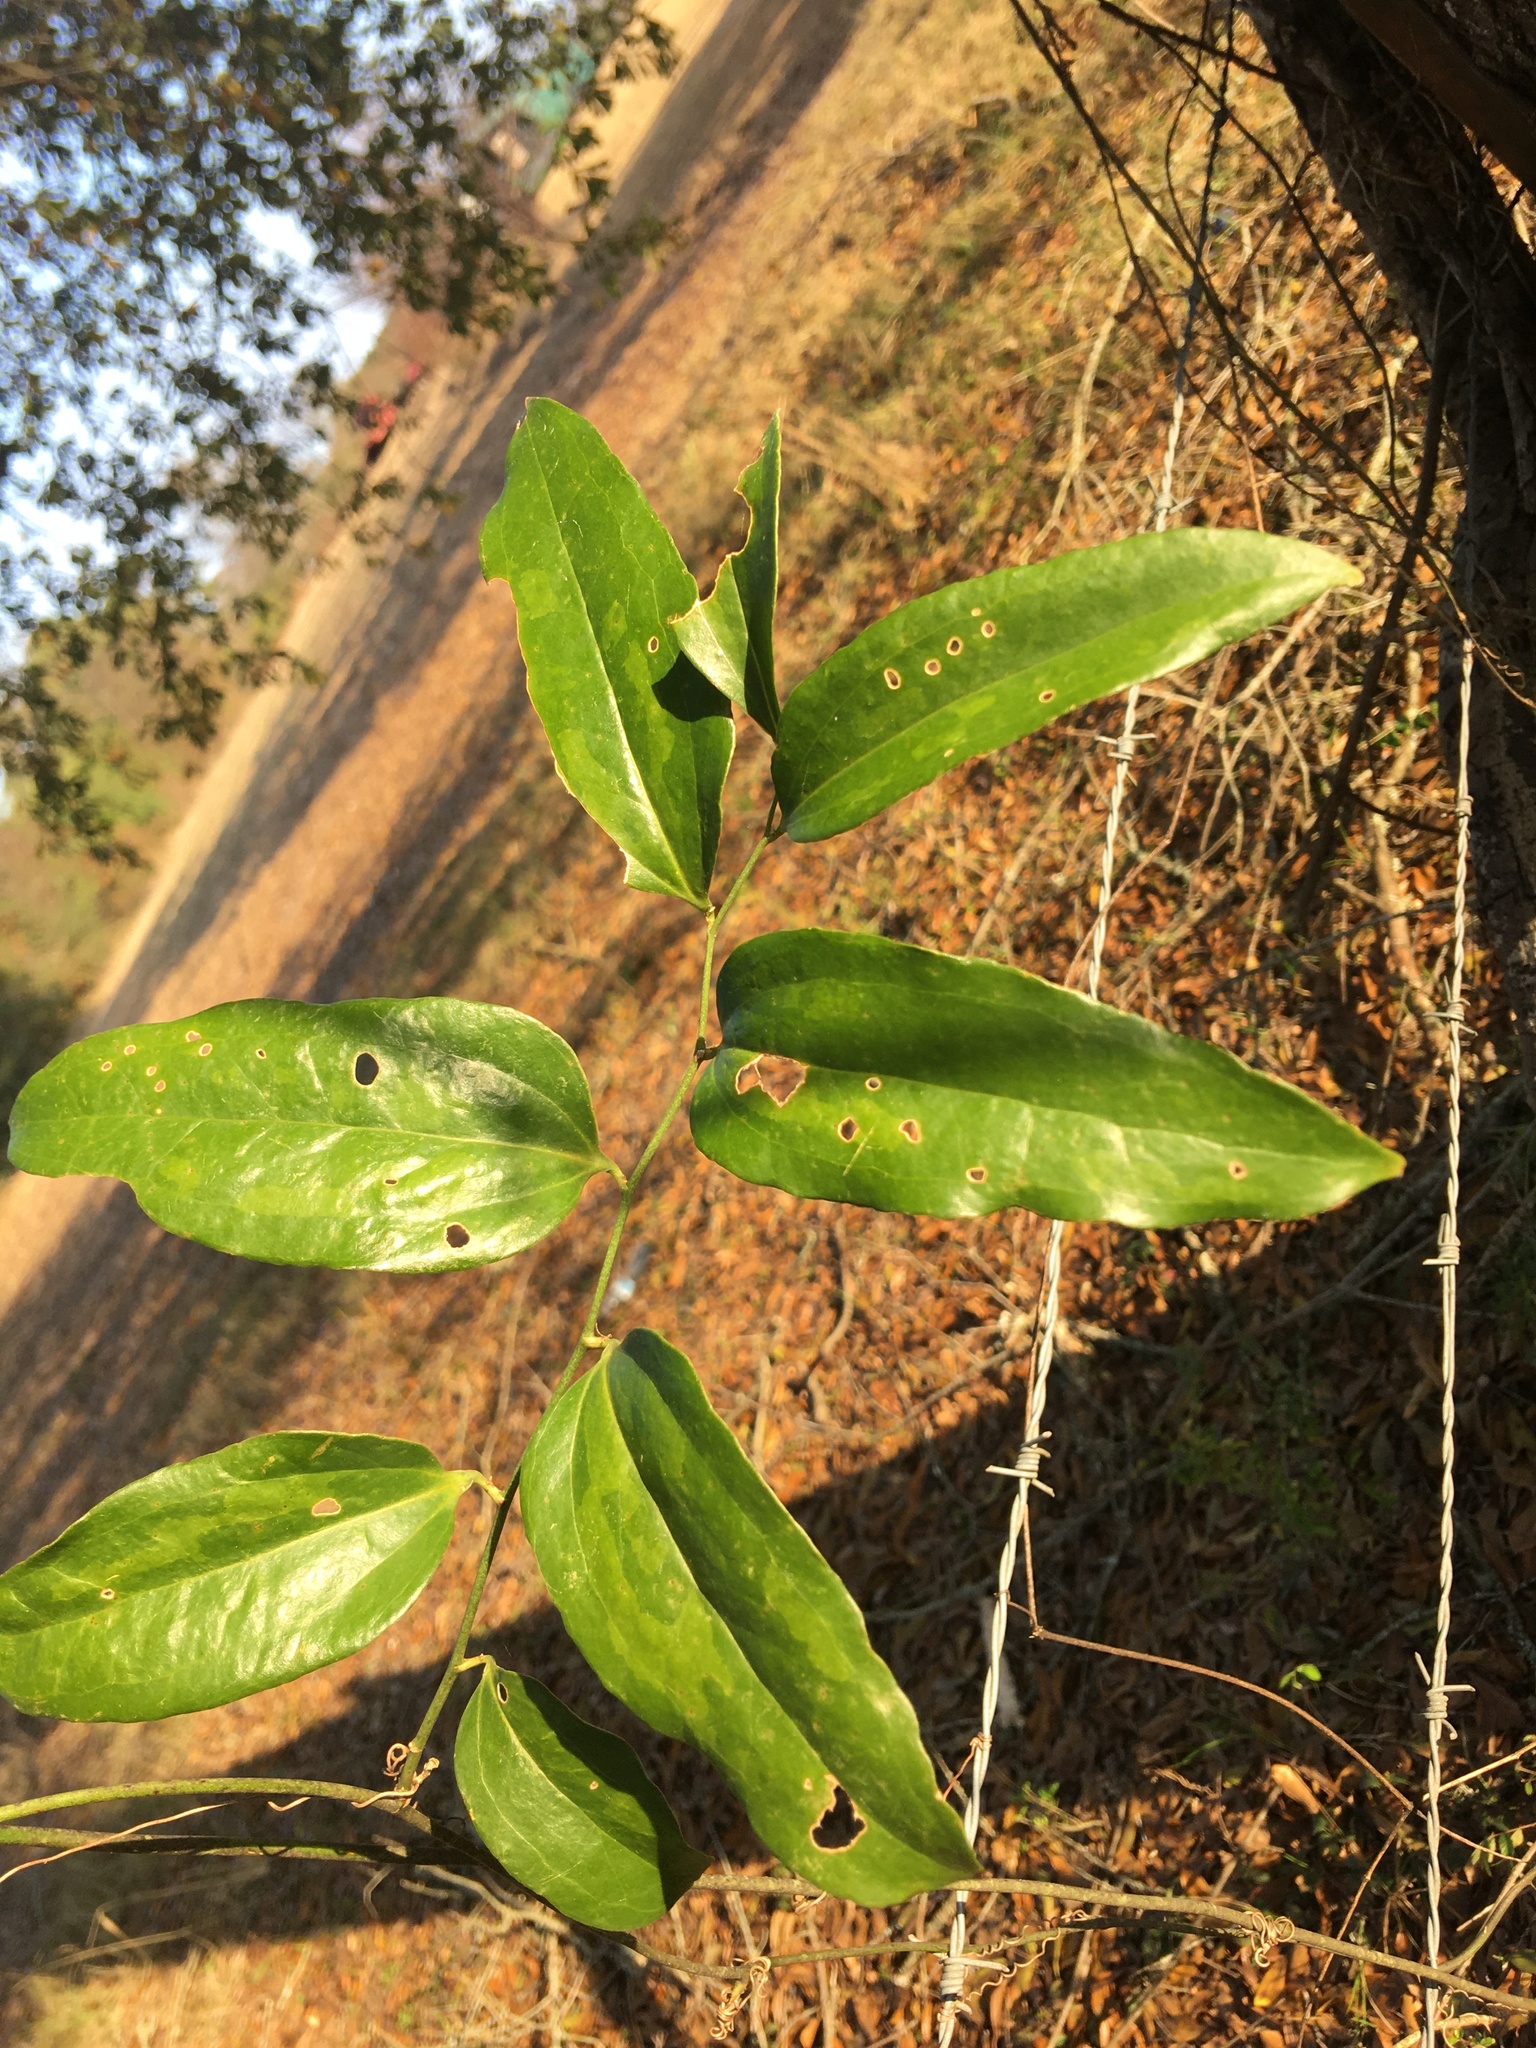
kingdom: Plantae
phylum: Tracheophyta
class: Liliopsida
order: Liliales
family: Smilacaceae
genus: Smilax
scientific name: Smilax maritima
